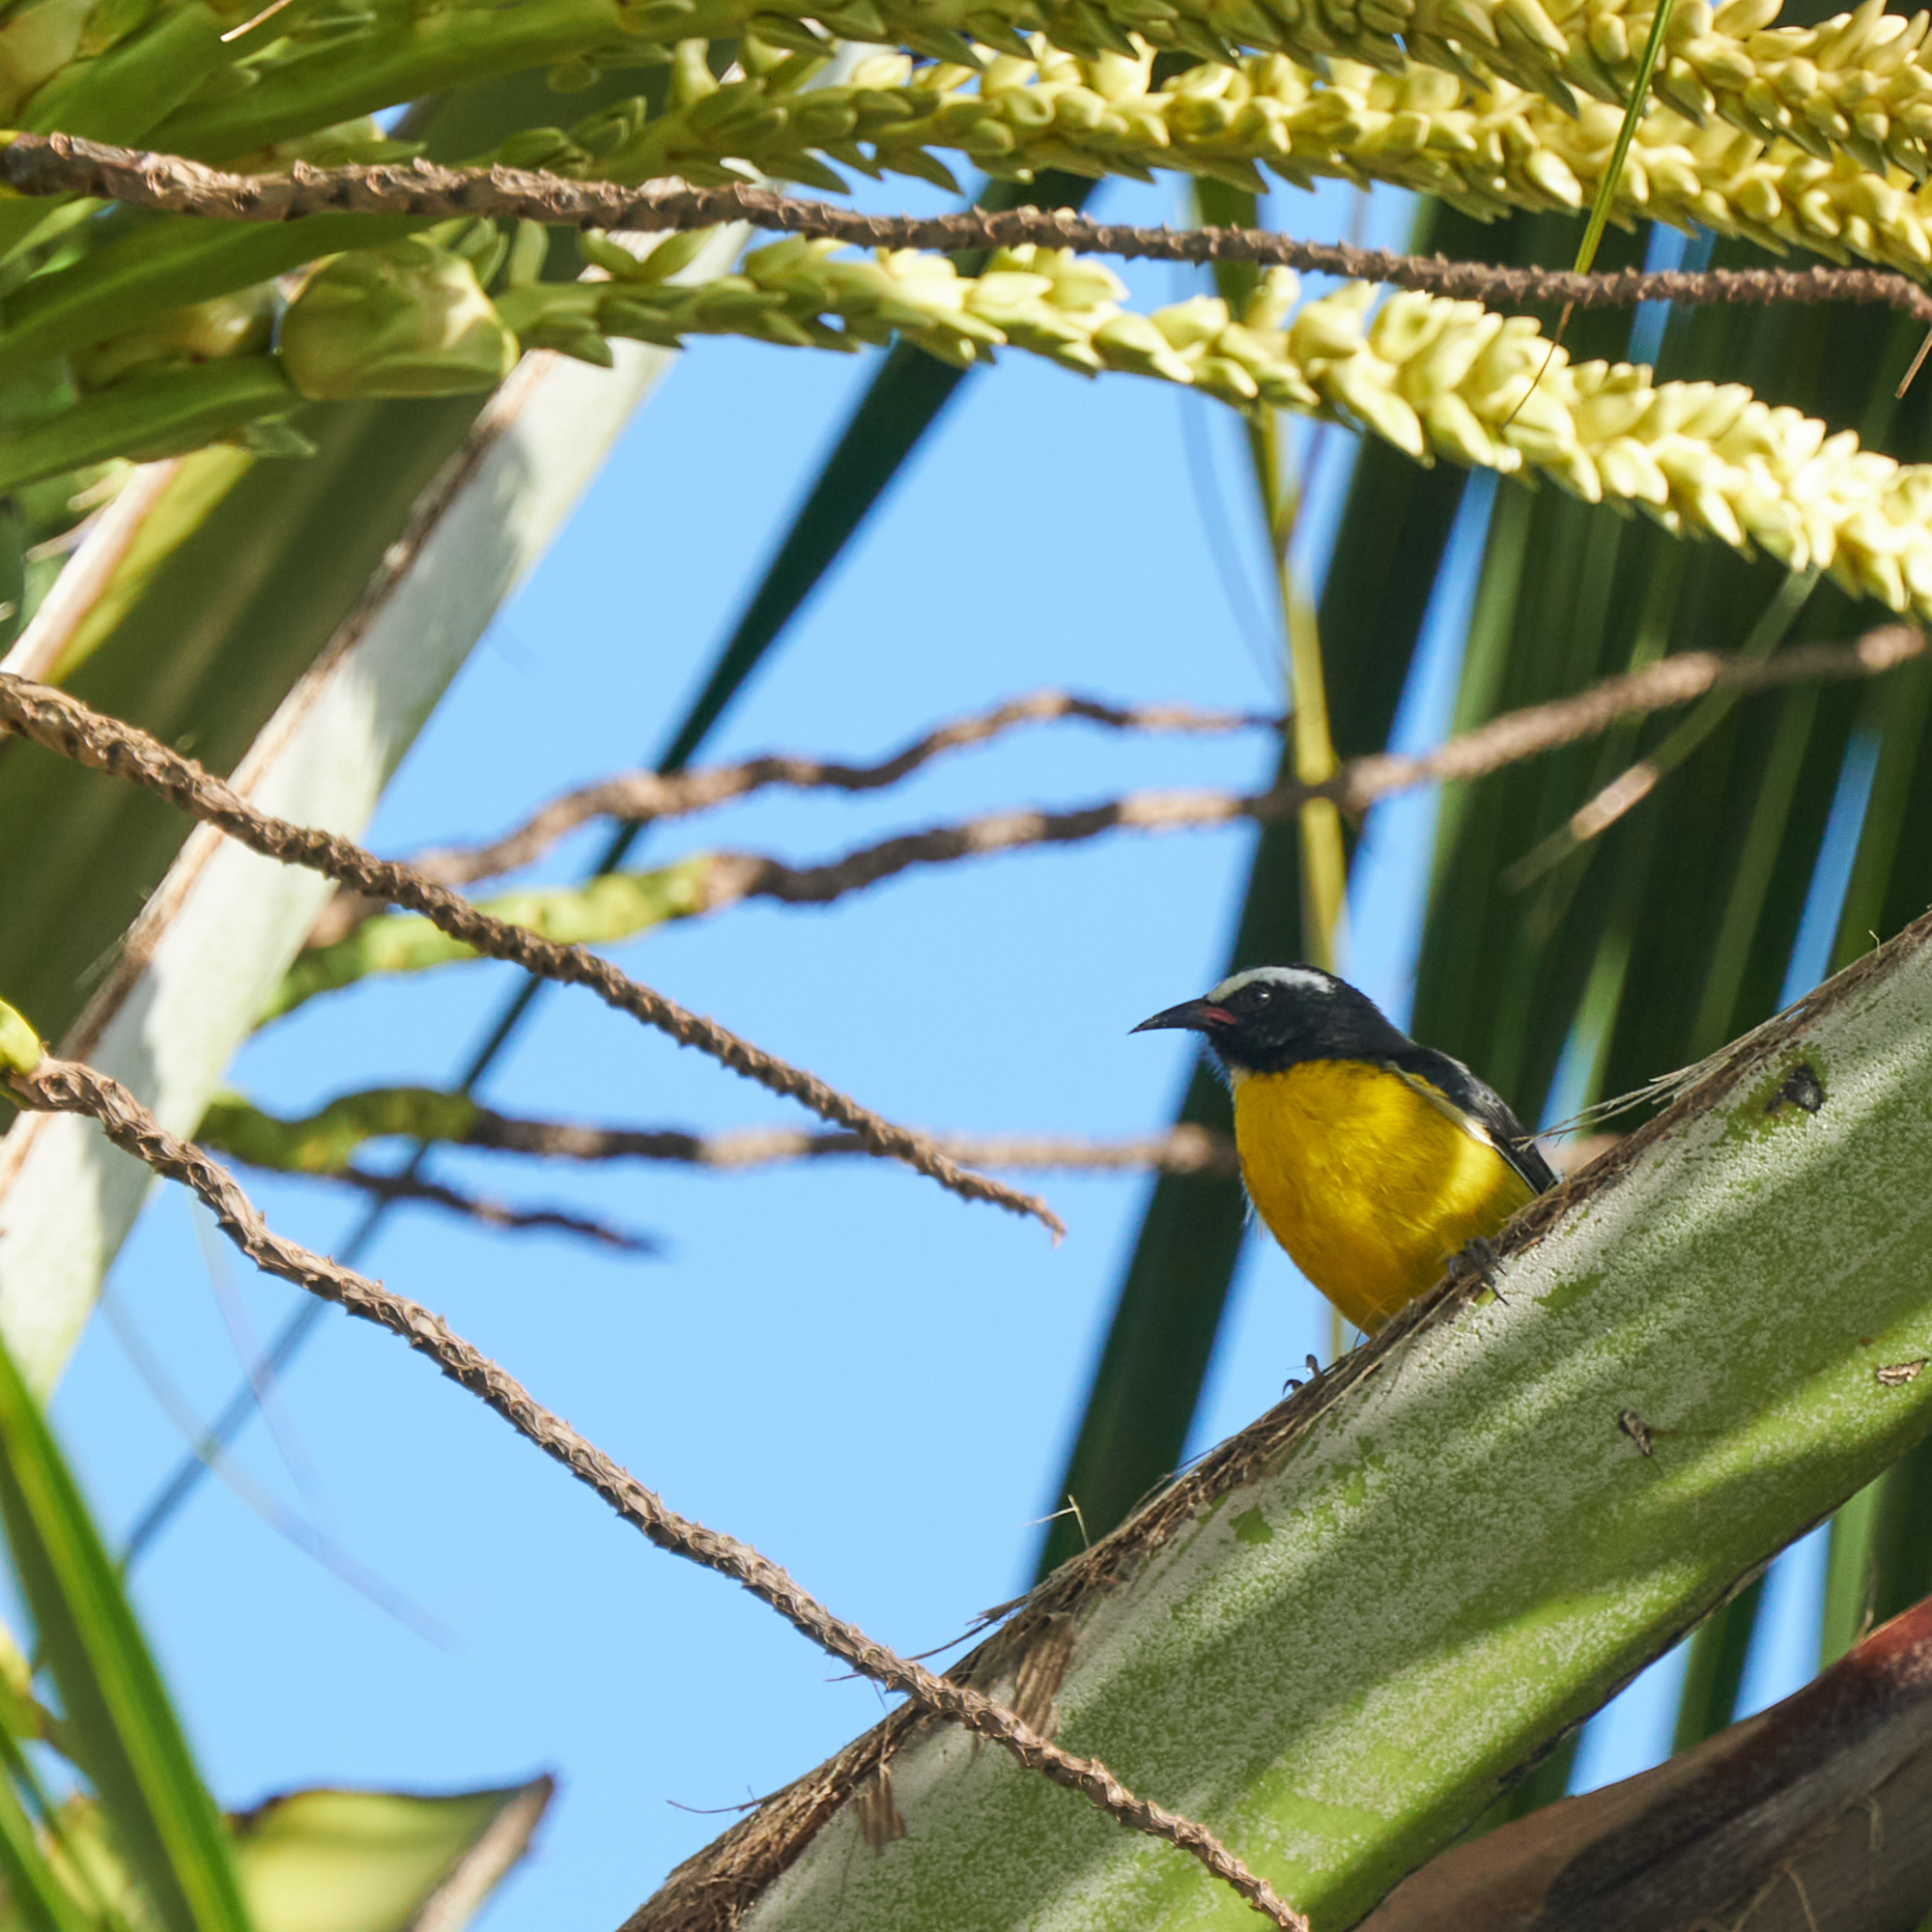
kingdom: Animalia
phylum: Chordata
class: Aves
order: Passeriformes
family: Thraupidae
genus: Coereba
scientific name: Coereba flaveola
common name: Bananaquit
